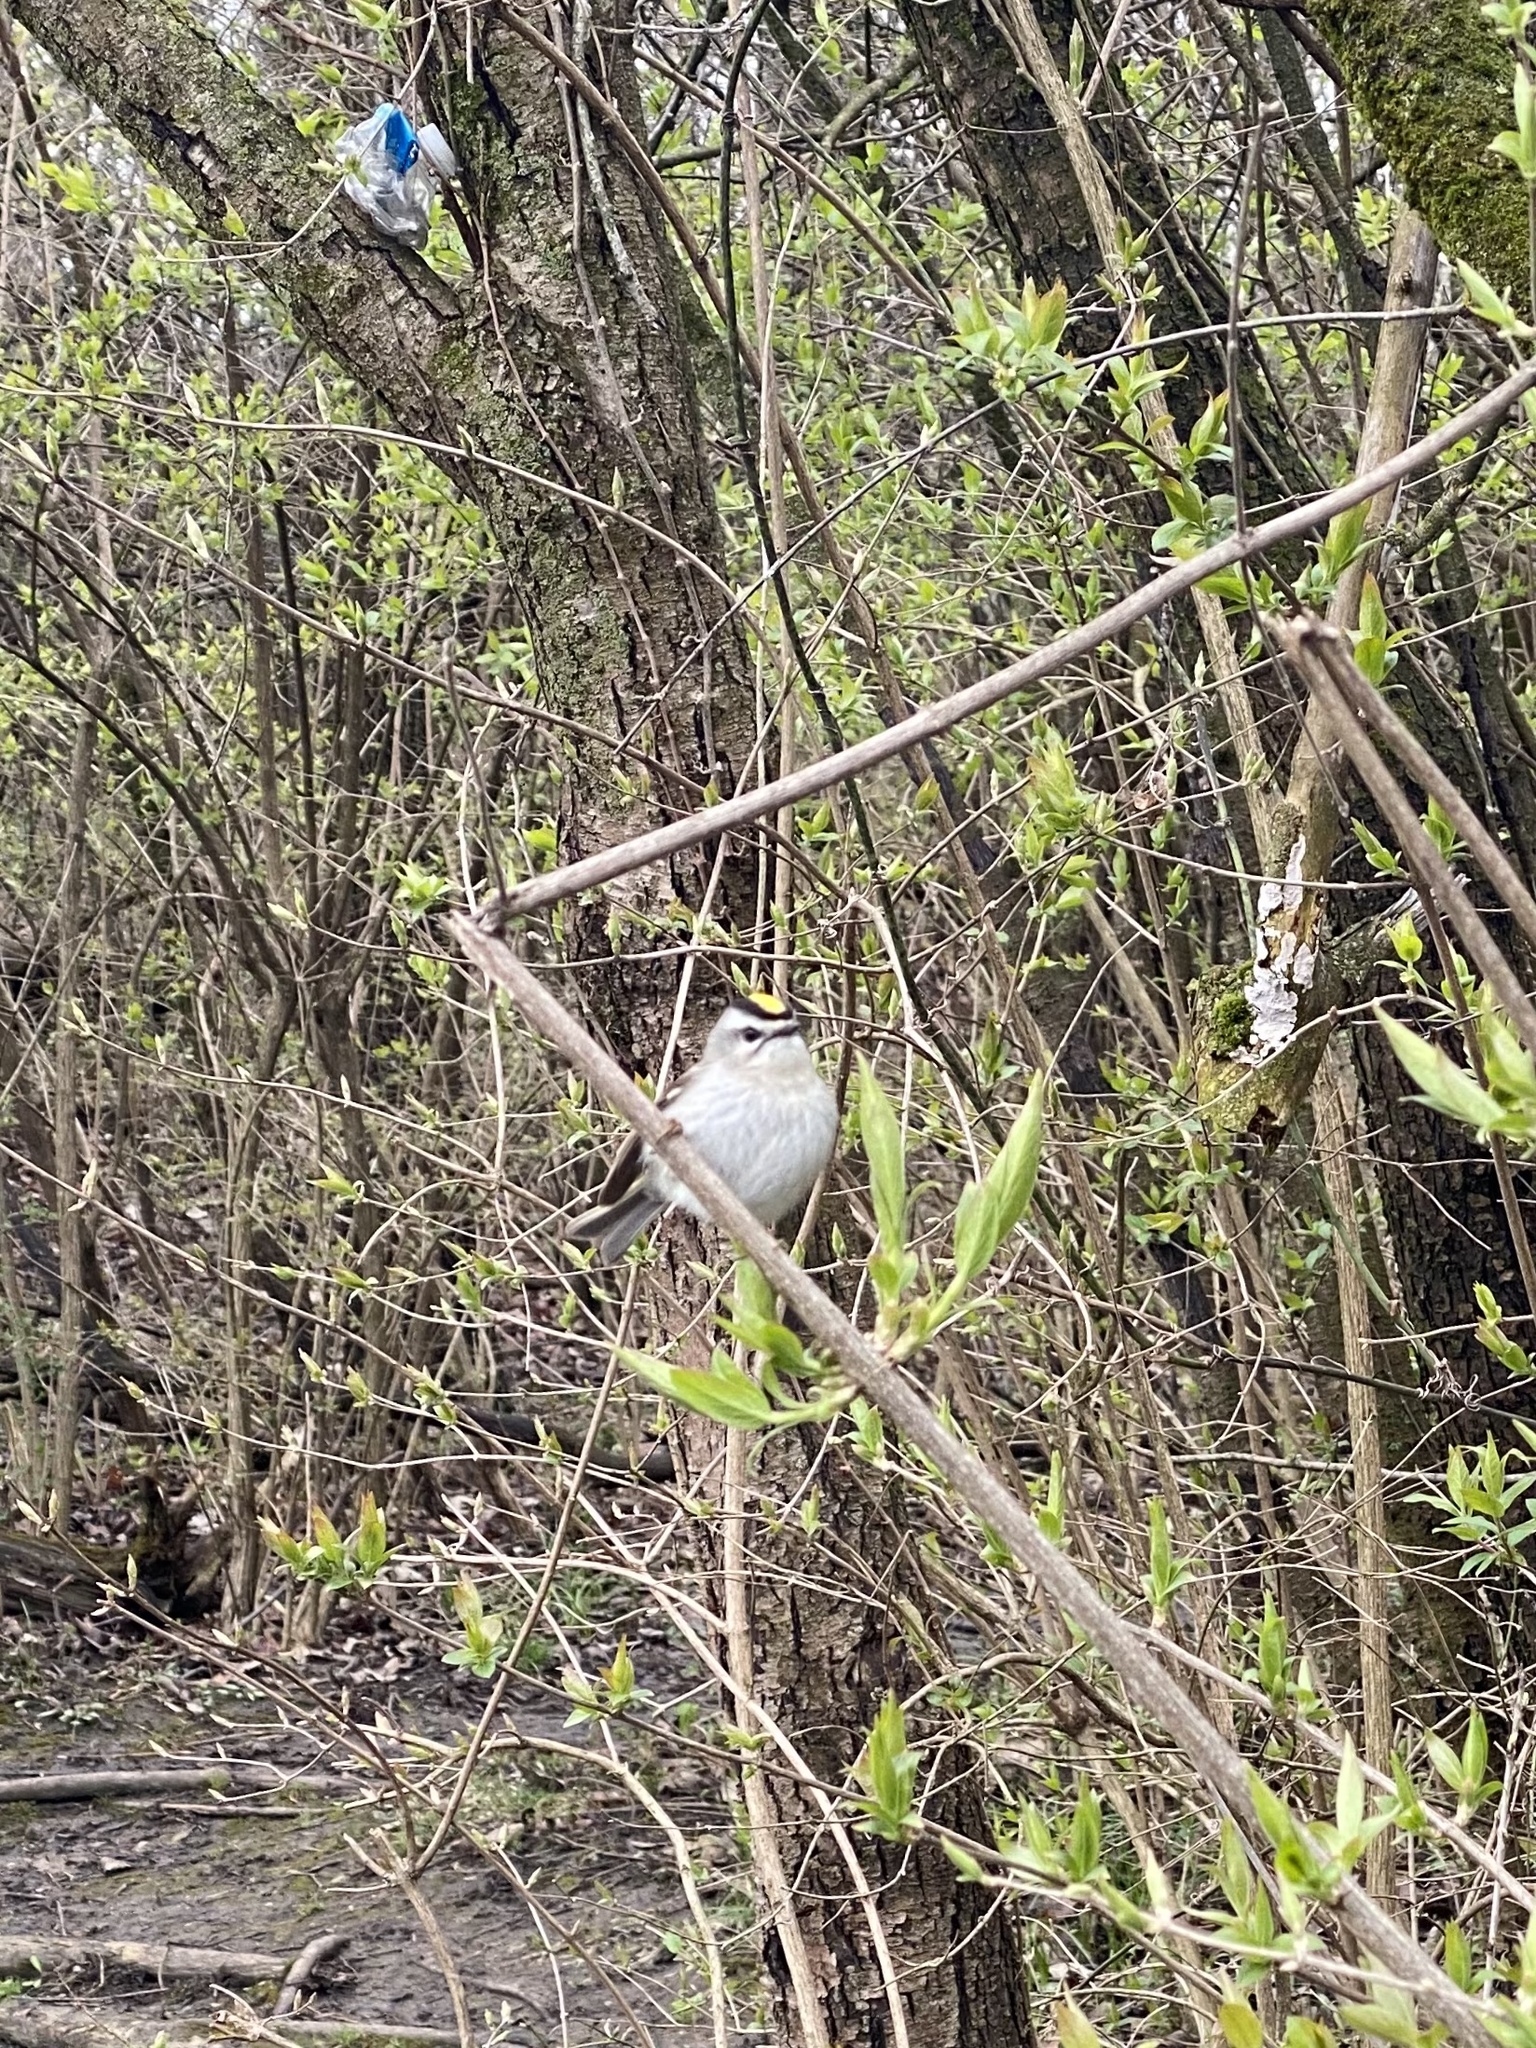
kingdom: Animalia
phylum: Chordata
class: Aves
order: Passeriformes
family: Regulidae
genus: Regulus
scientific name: Regulus satrapa
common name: Golden-crowned kinglet
